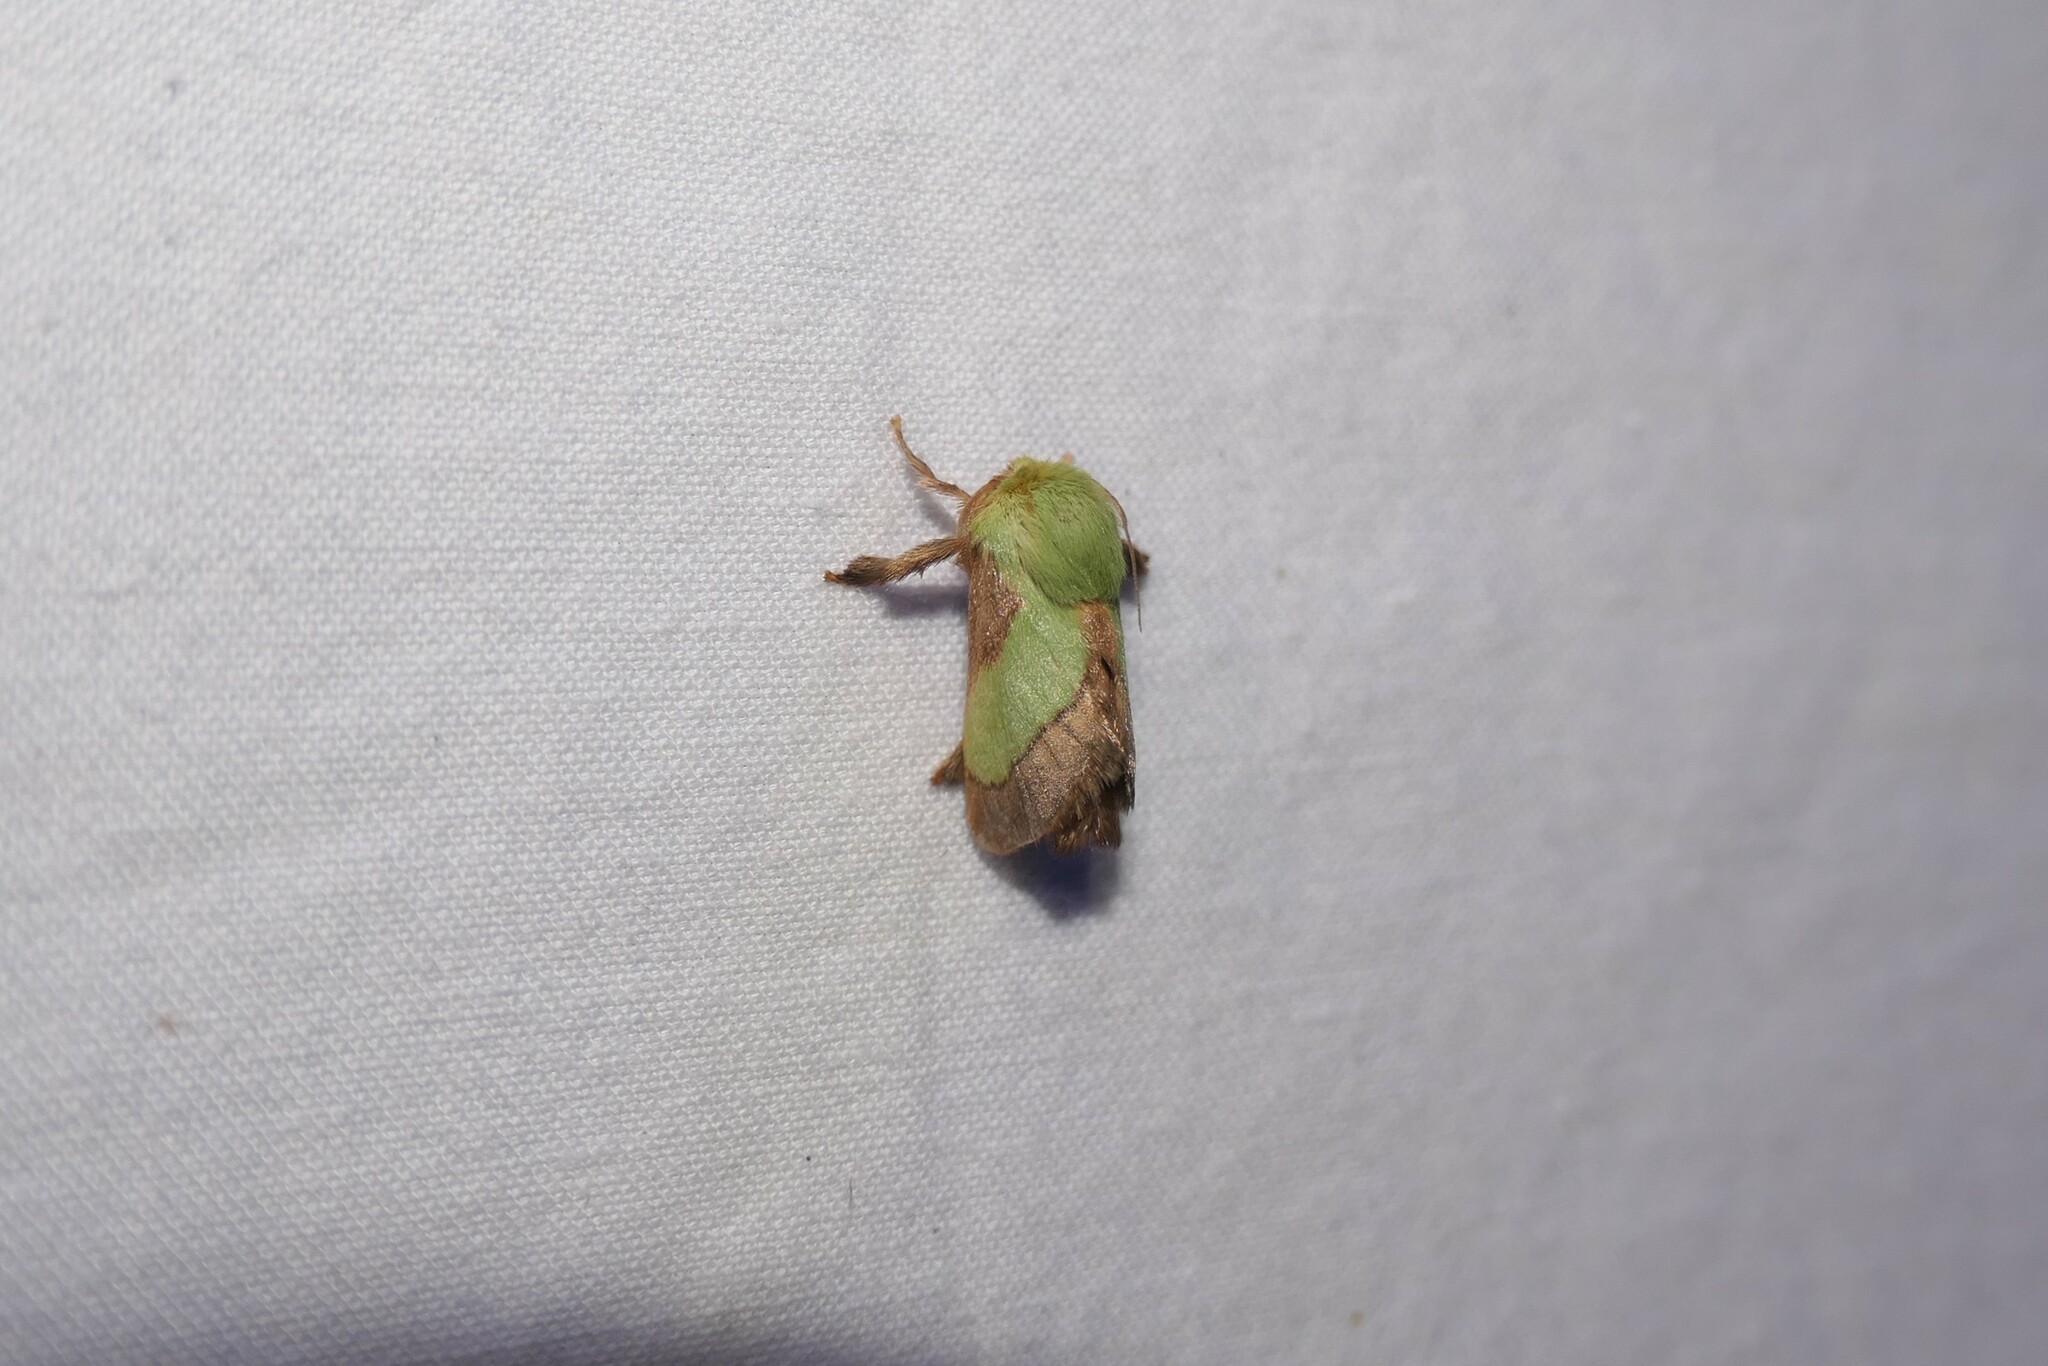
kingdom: Animalia
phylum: Arthropoda
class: Insecta
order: Lepidoptera
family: Limacodidae
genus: Parasa
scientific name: Parasa chloris
